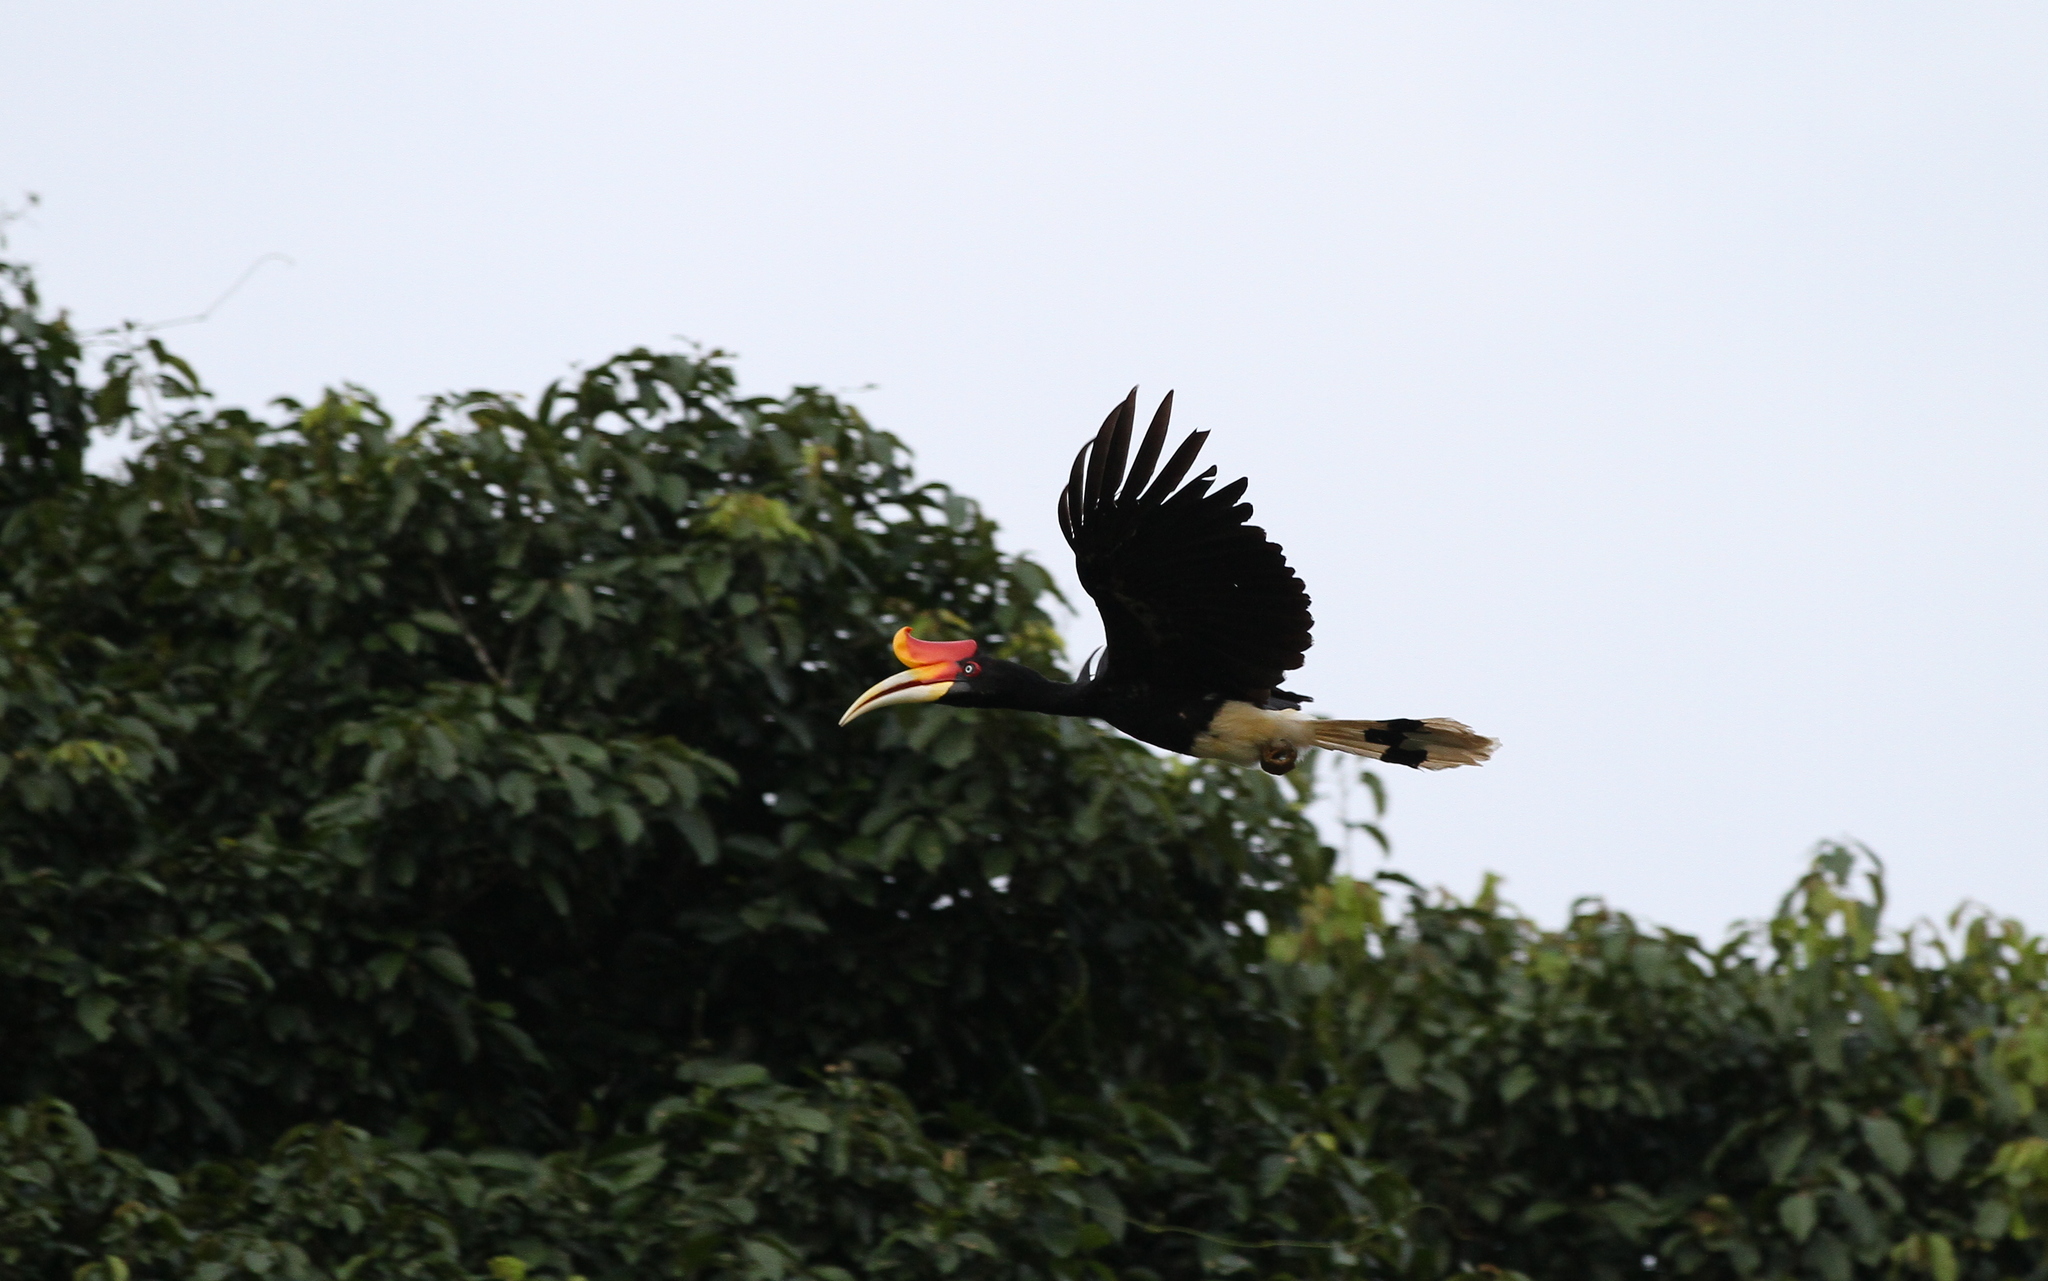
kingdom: Animalia
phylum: Chordata
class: Aves
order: Bucerotiformes
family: Bucerotidae
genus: Buceros
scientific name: Buceros rhinoceros
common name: Rhinoceros hornbill
